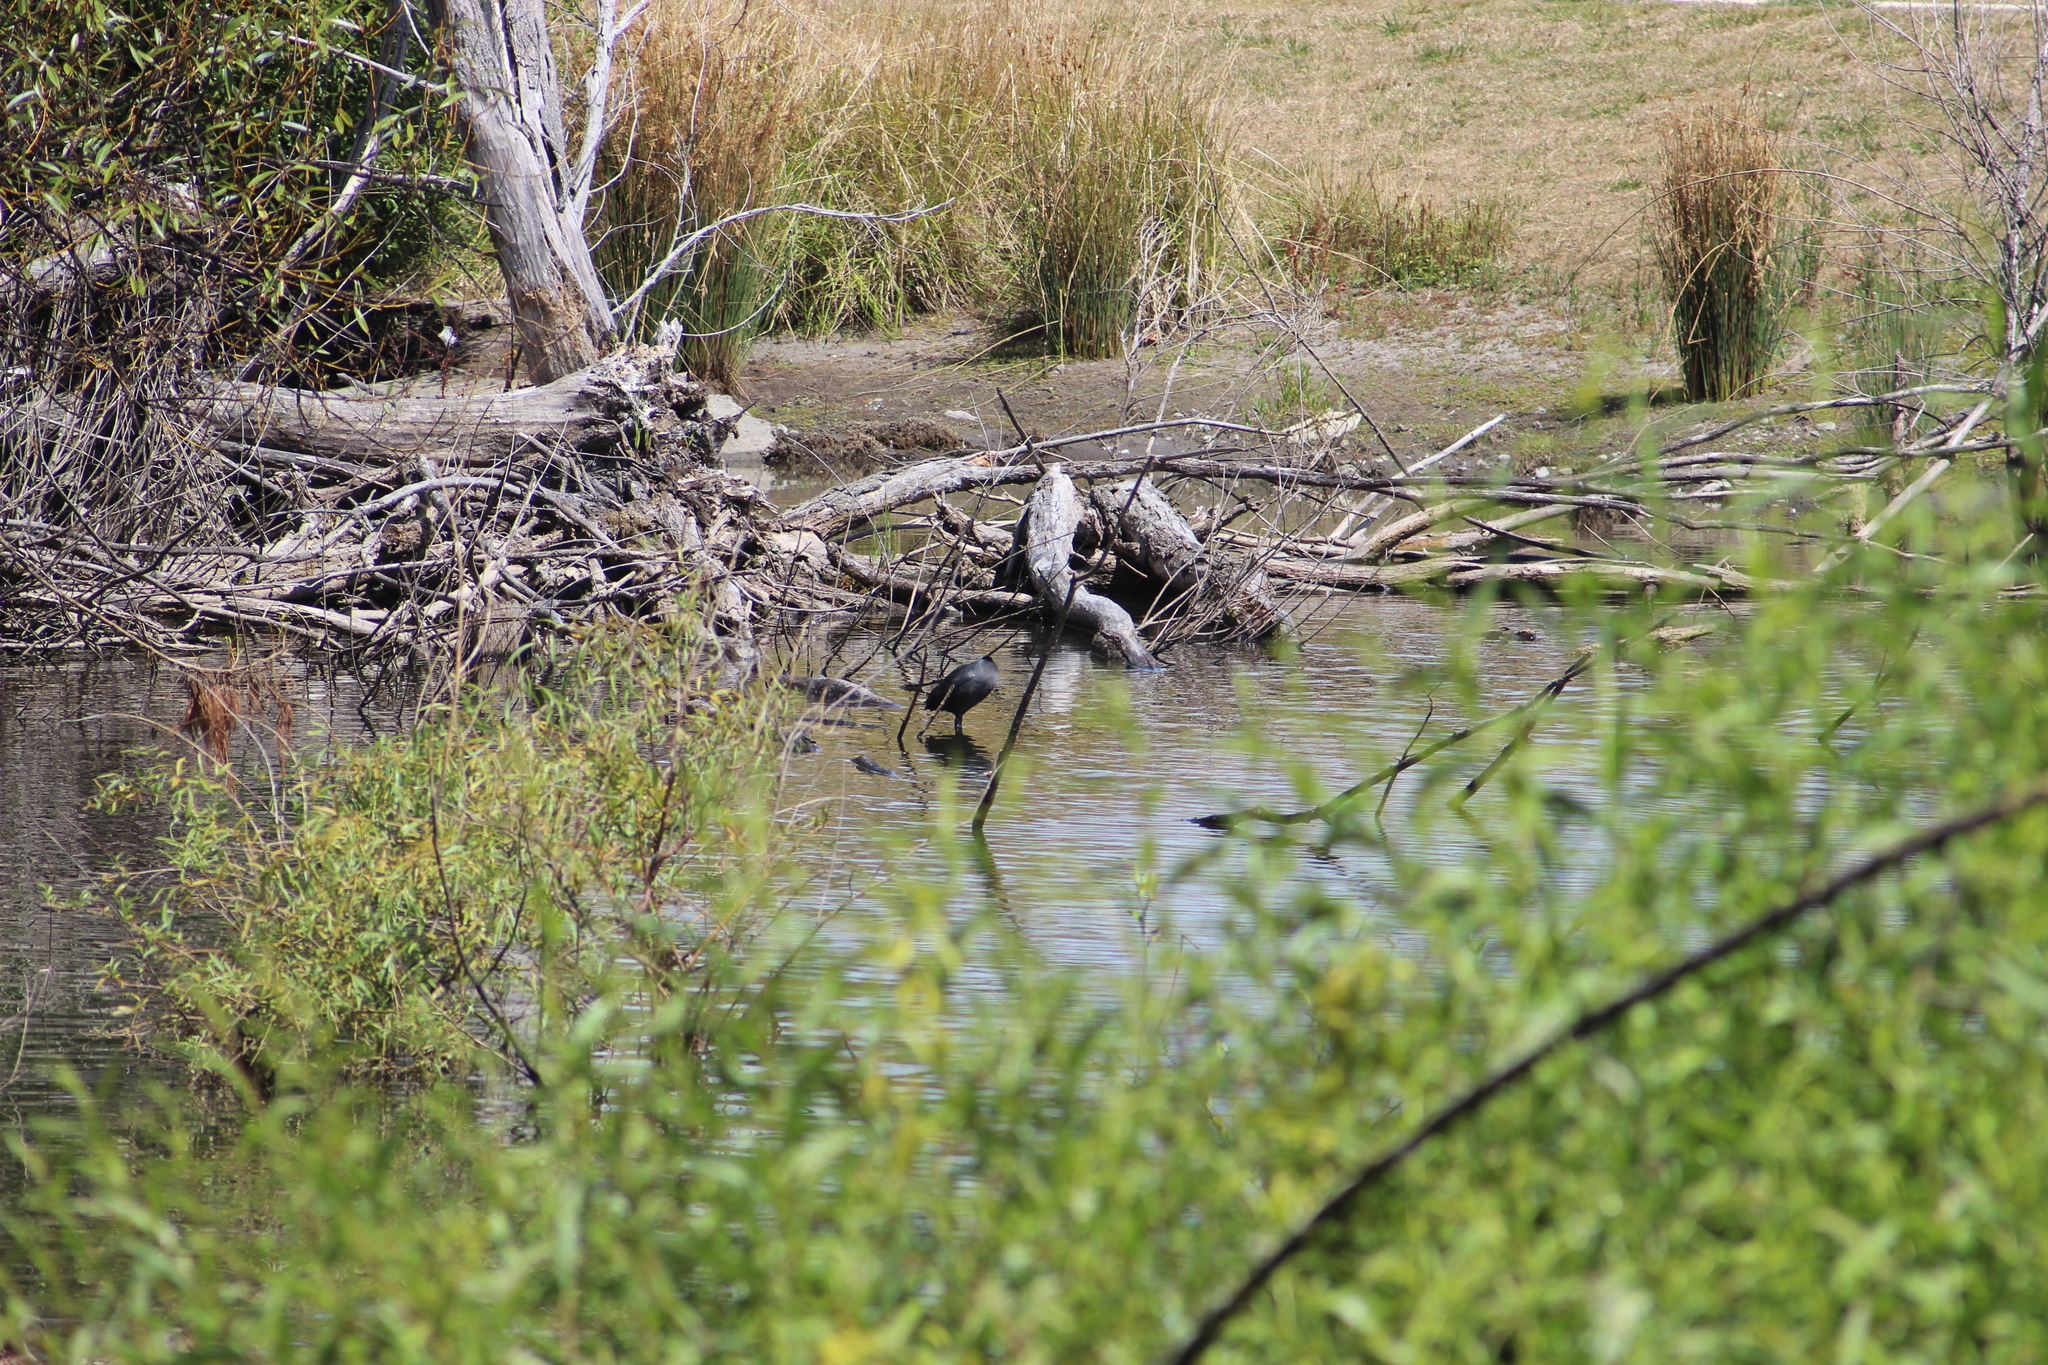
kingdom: Animalia
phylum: Chordata
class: Aves
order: Gruiformes
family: Rallidae
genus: Fulica
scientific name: Fulica atra
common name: Eurasian coot
